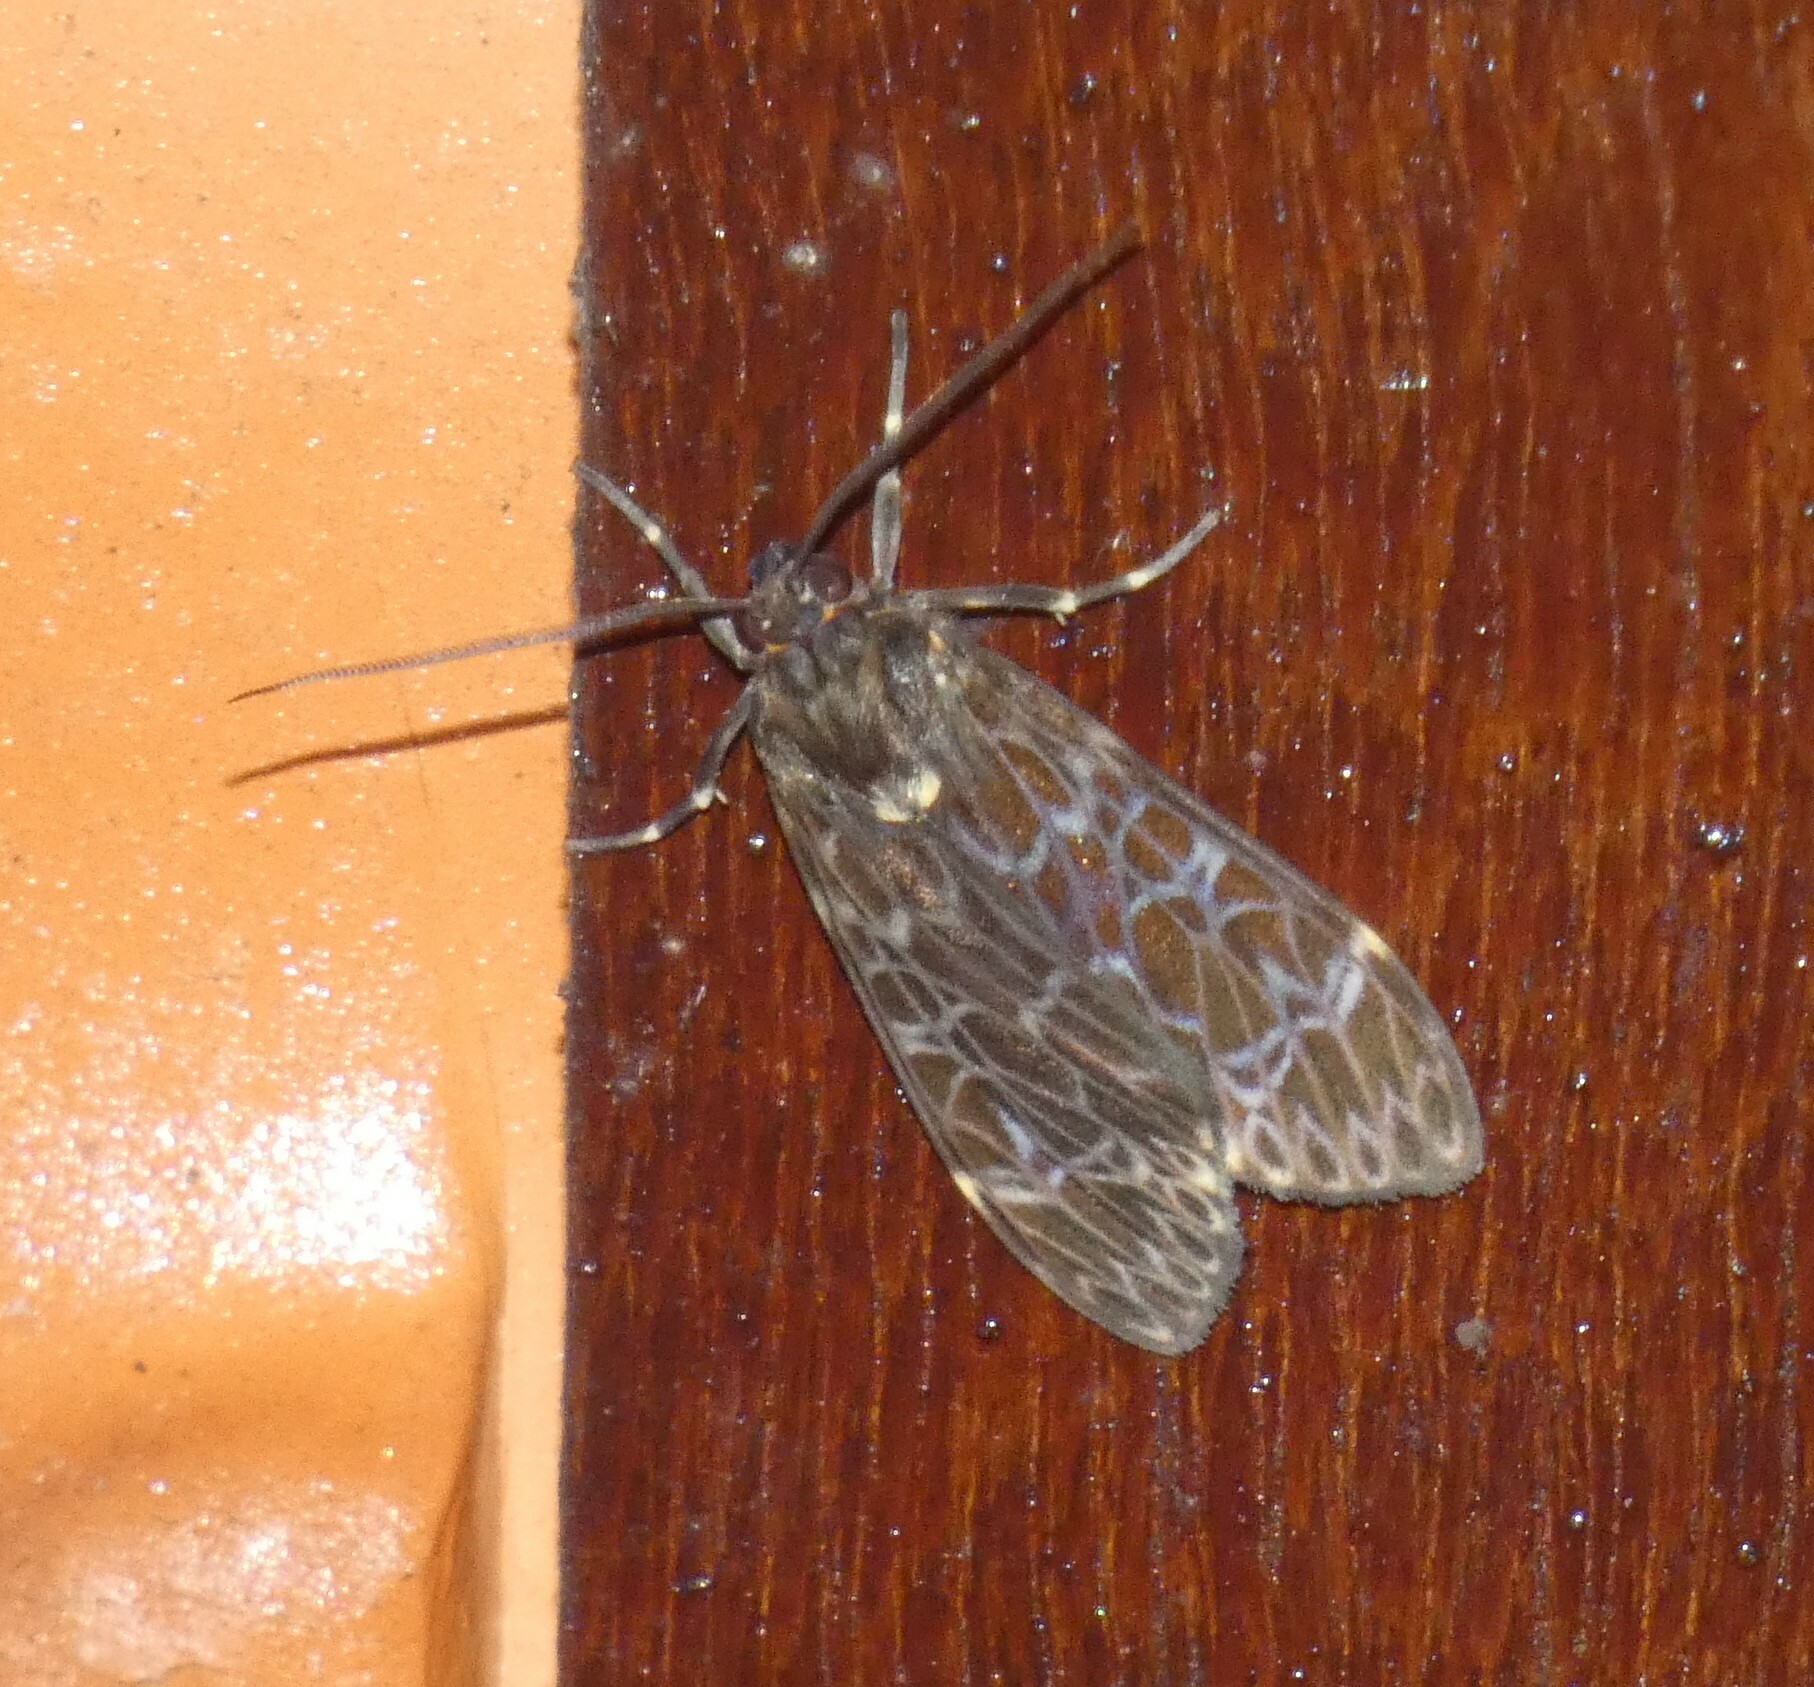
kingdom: Animalia
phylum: Arthropoda
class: Insecta
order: Lepidoptera
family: Erebidae
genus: Eucereon
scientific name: Eucereon sylvius
